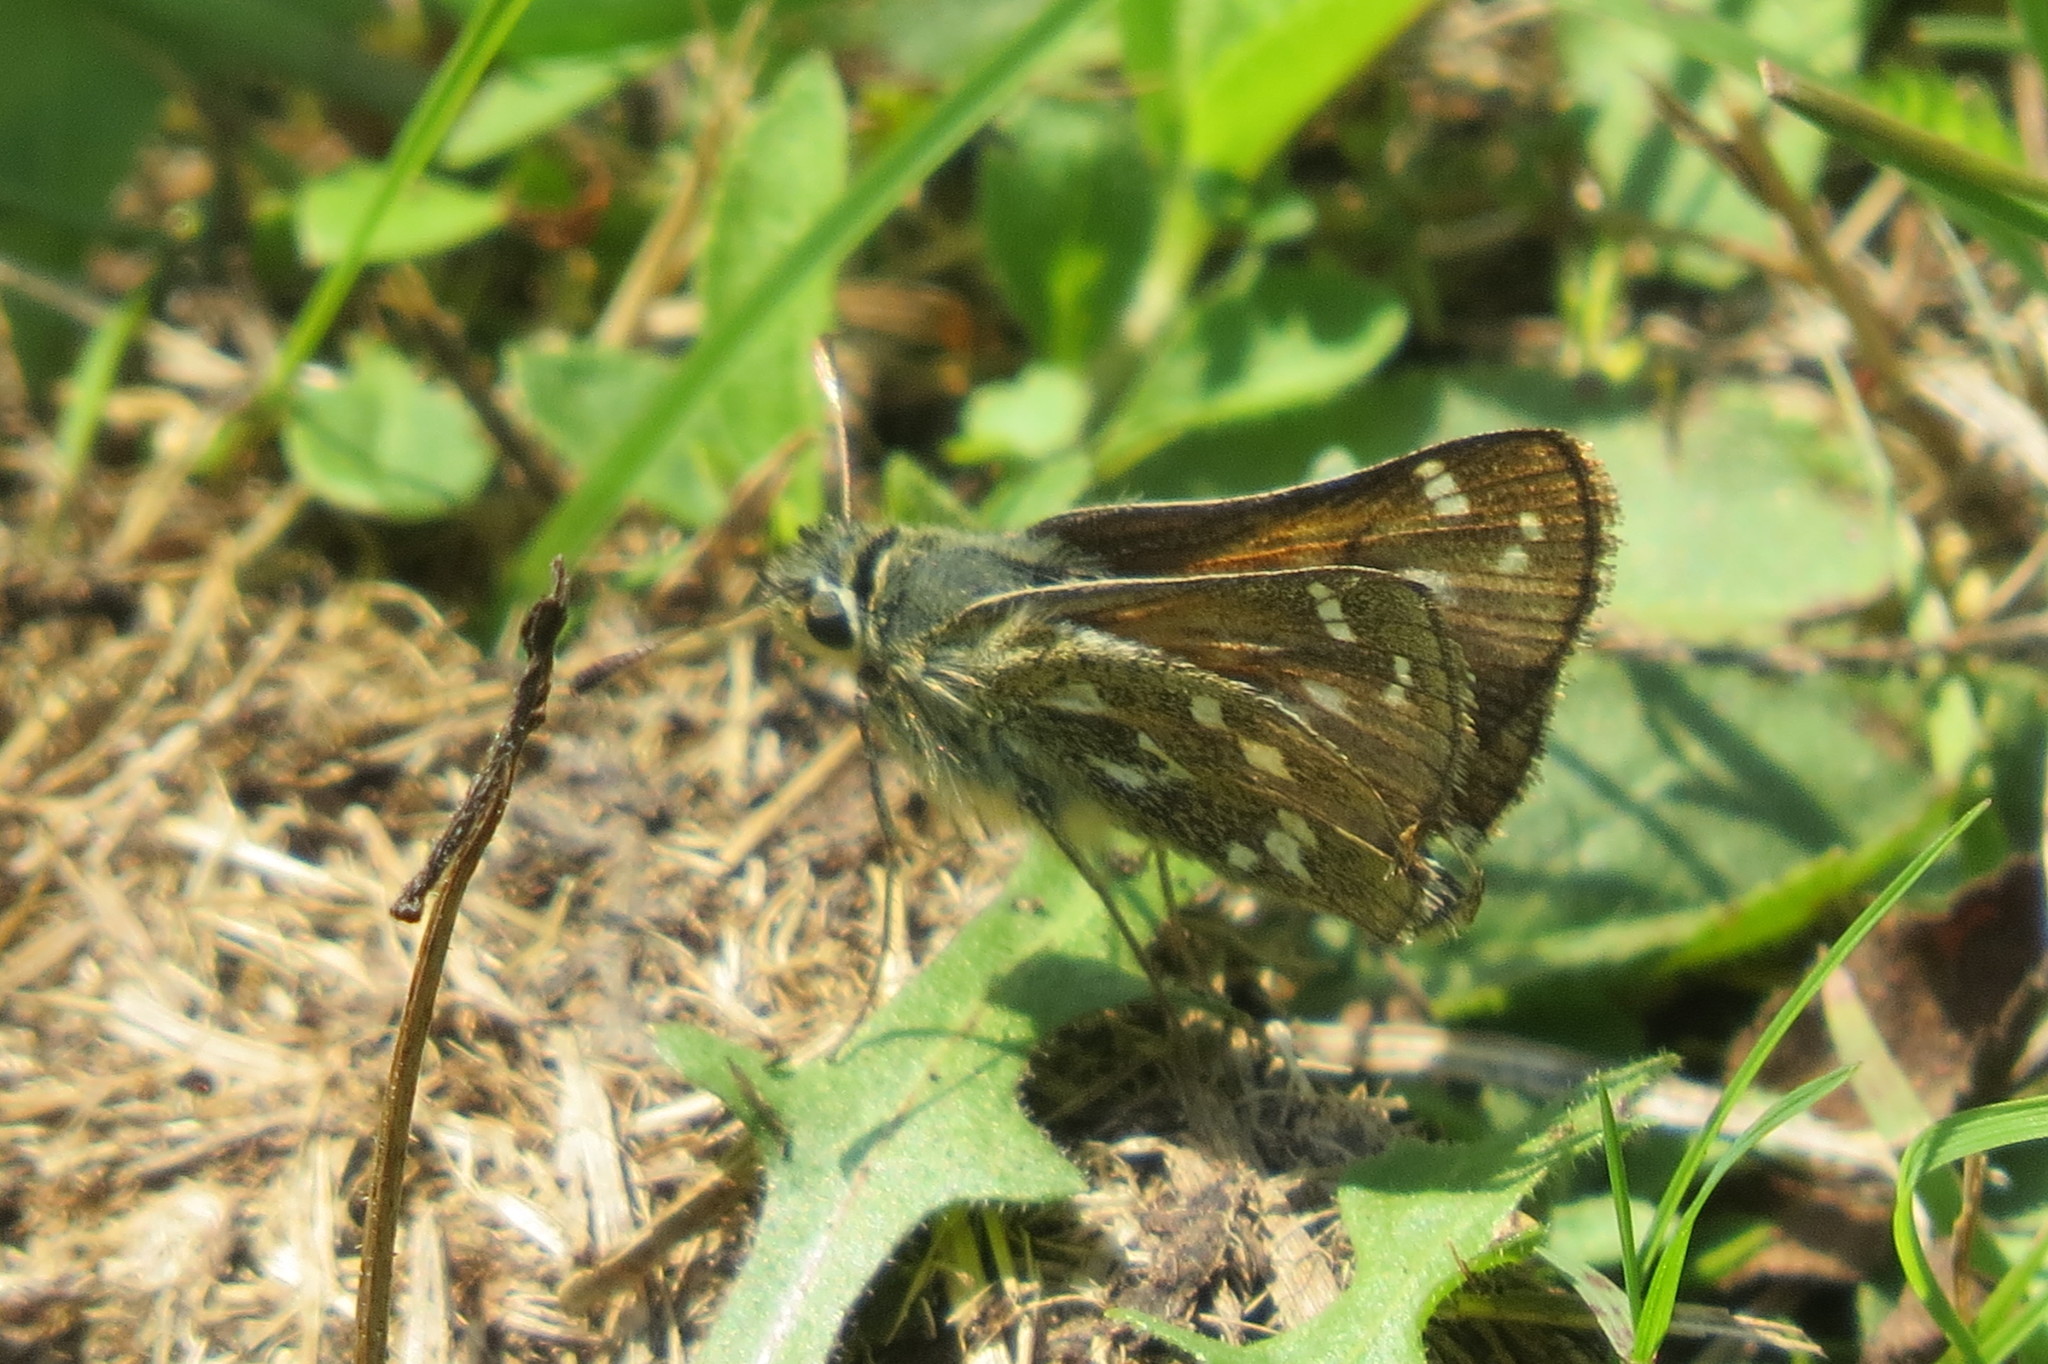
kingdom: Animalia
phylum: Arthropoda
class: Insecta
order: Lepidoptera
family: Hesperiidae
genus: Hesperia
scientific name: Hesperia comma
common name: Common branded skipper
